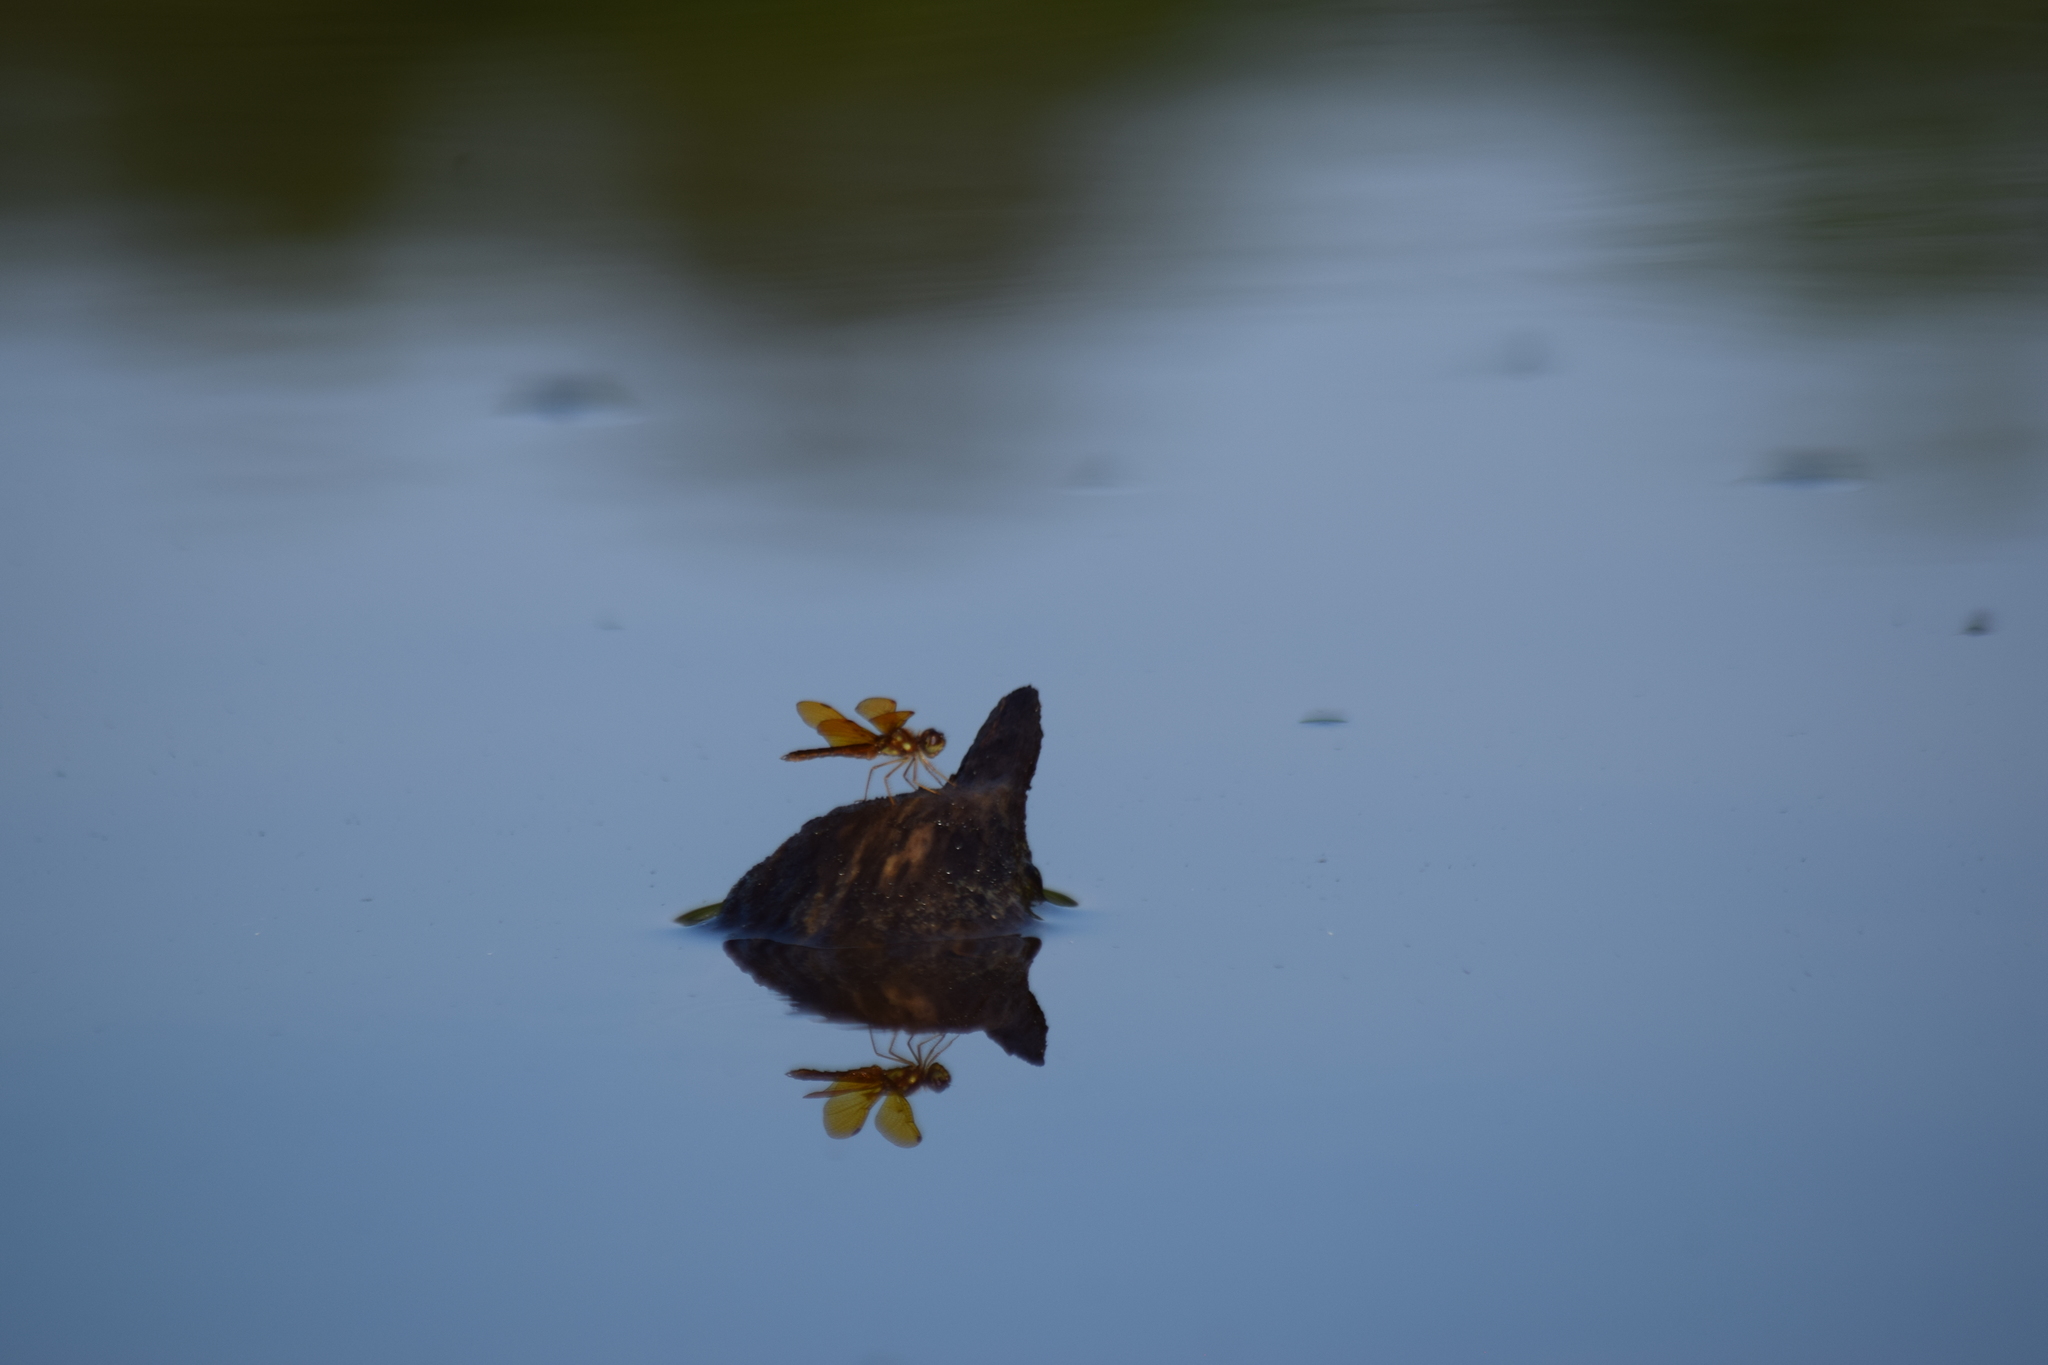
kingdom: Animalia
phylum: Arthropoda
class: Insecta
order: Odonata
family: Libellulidae
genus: Perithemis
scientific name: Perithemis tenera
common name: Eastern amberwing
